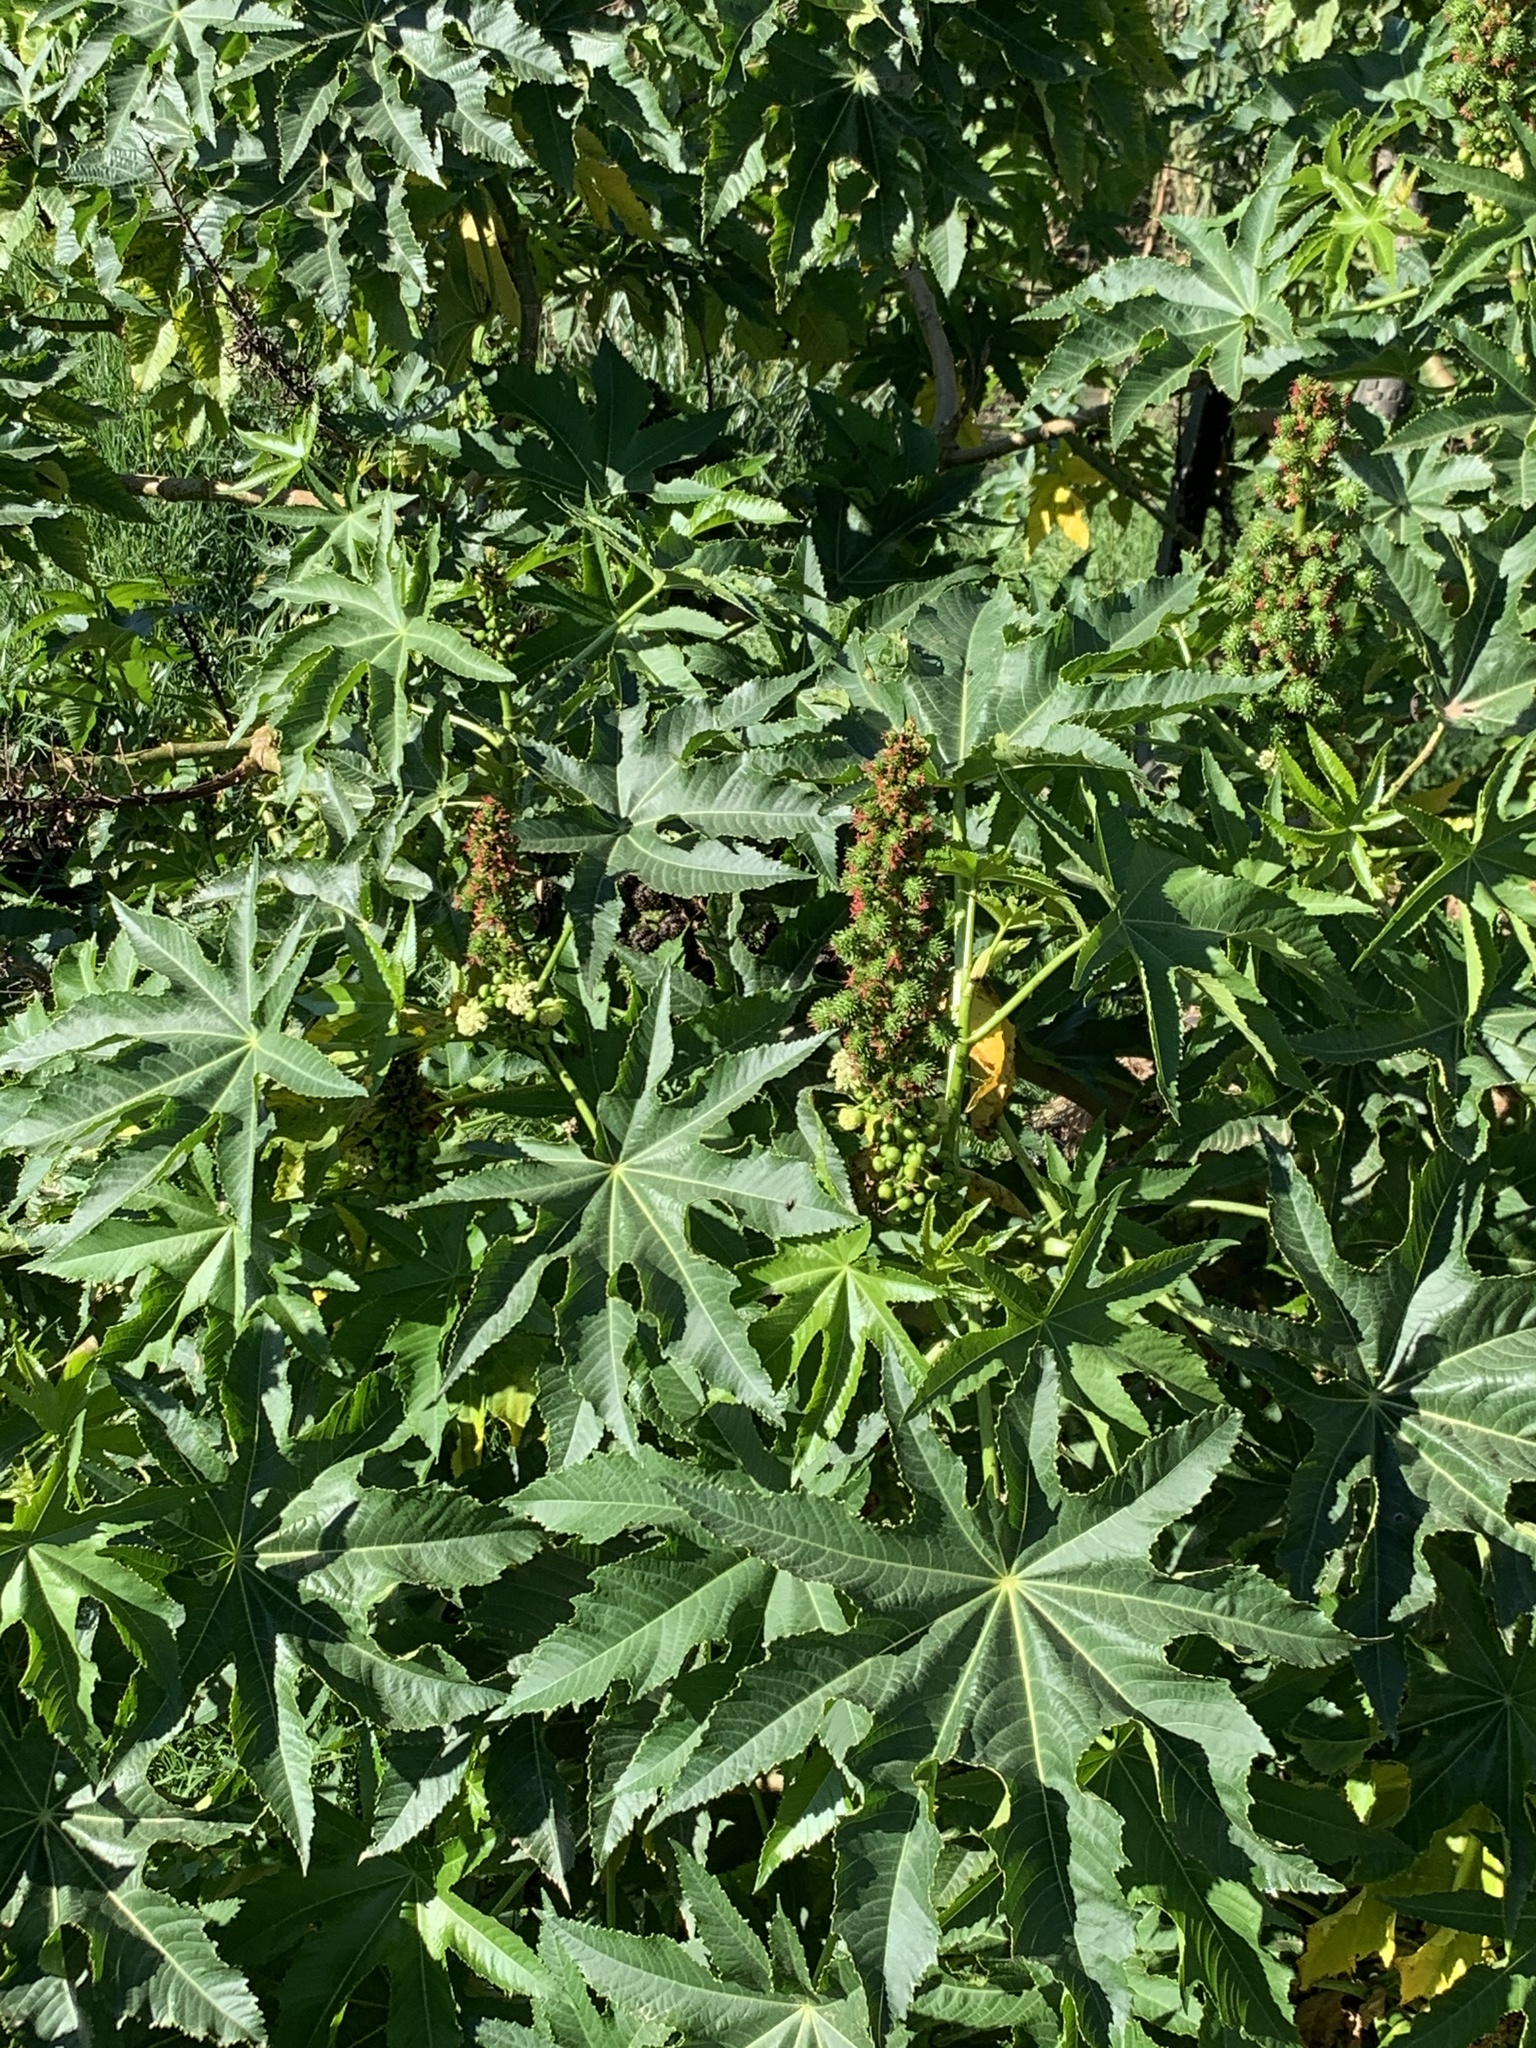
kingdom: Plantae
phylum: Tracheophyta
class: Magnoliopsida
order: Malpighiales
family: Euphorbiaceae
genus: Ricinus
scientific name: Ricinus communis
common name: Castor-oil-plant
